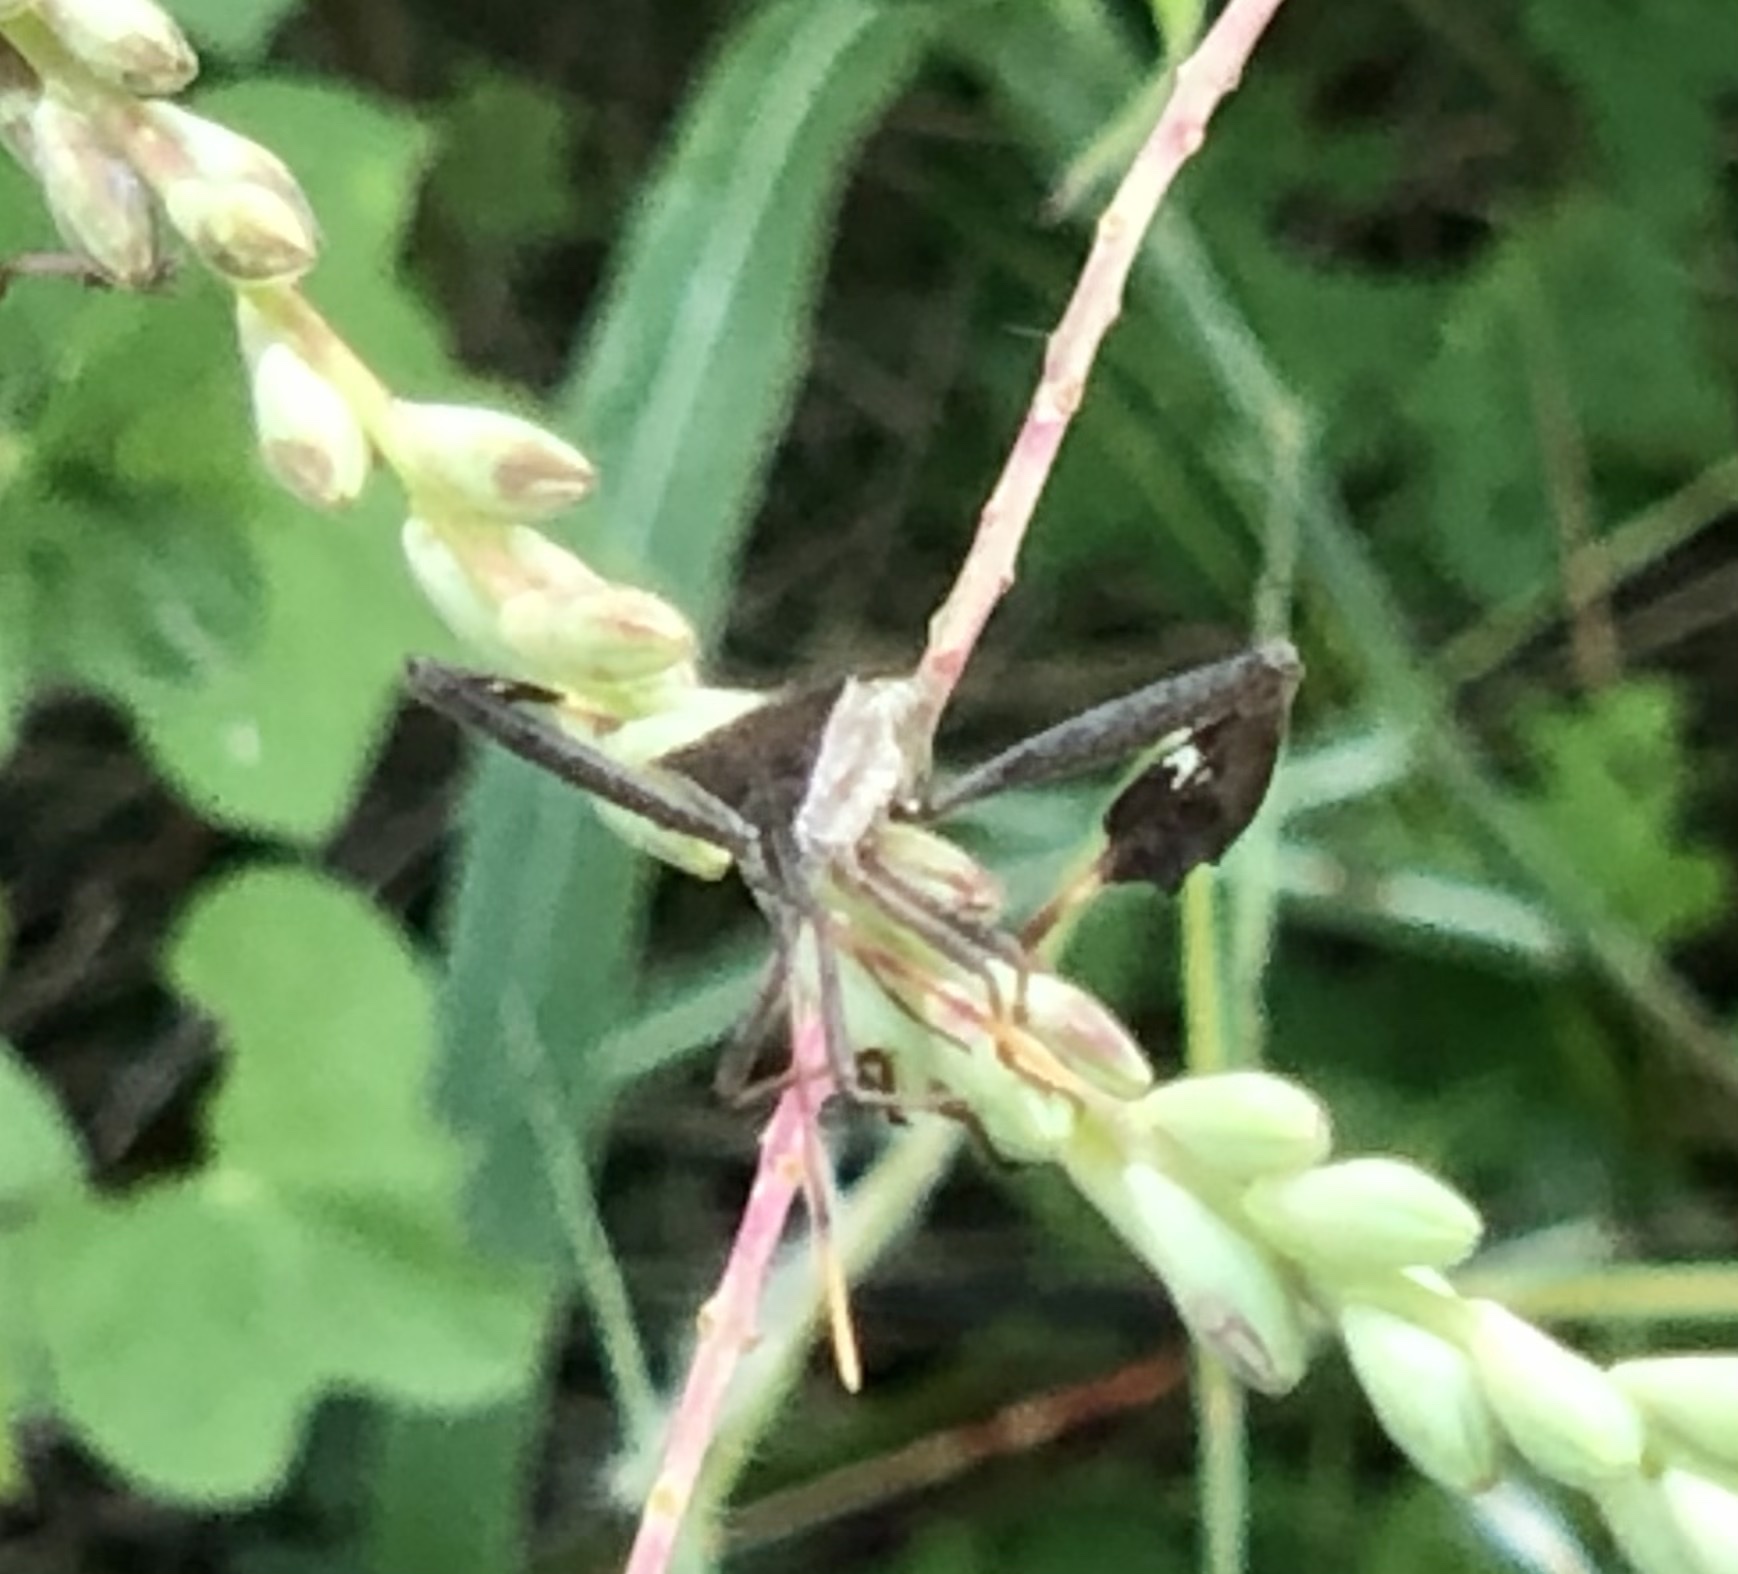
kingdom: Animalia
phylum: Arthropoda
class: Insecta
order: Hemiptera
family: Coreidae
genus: Leptoglossus
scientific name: Leptoglossus phyllopus
